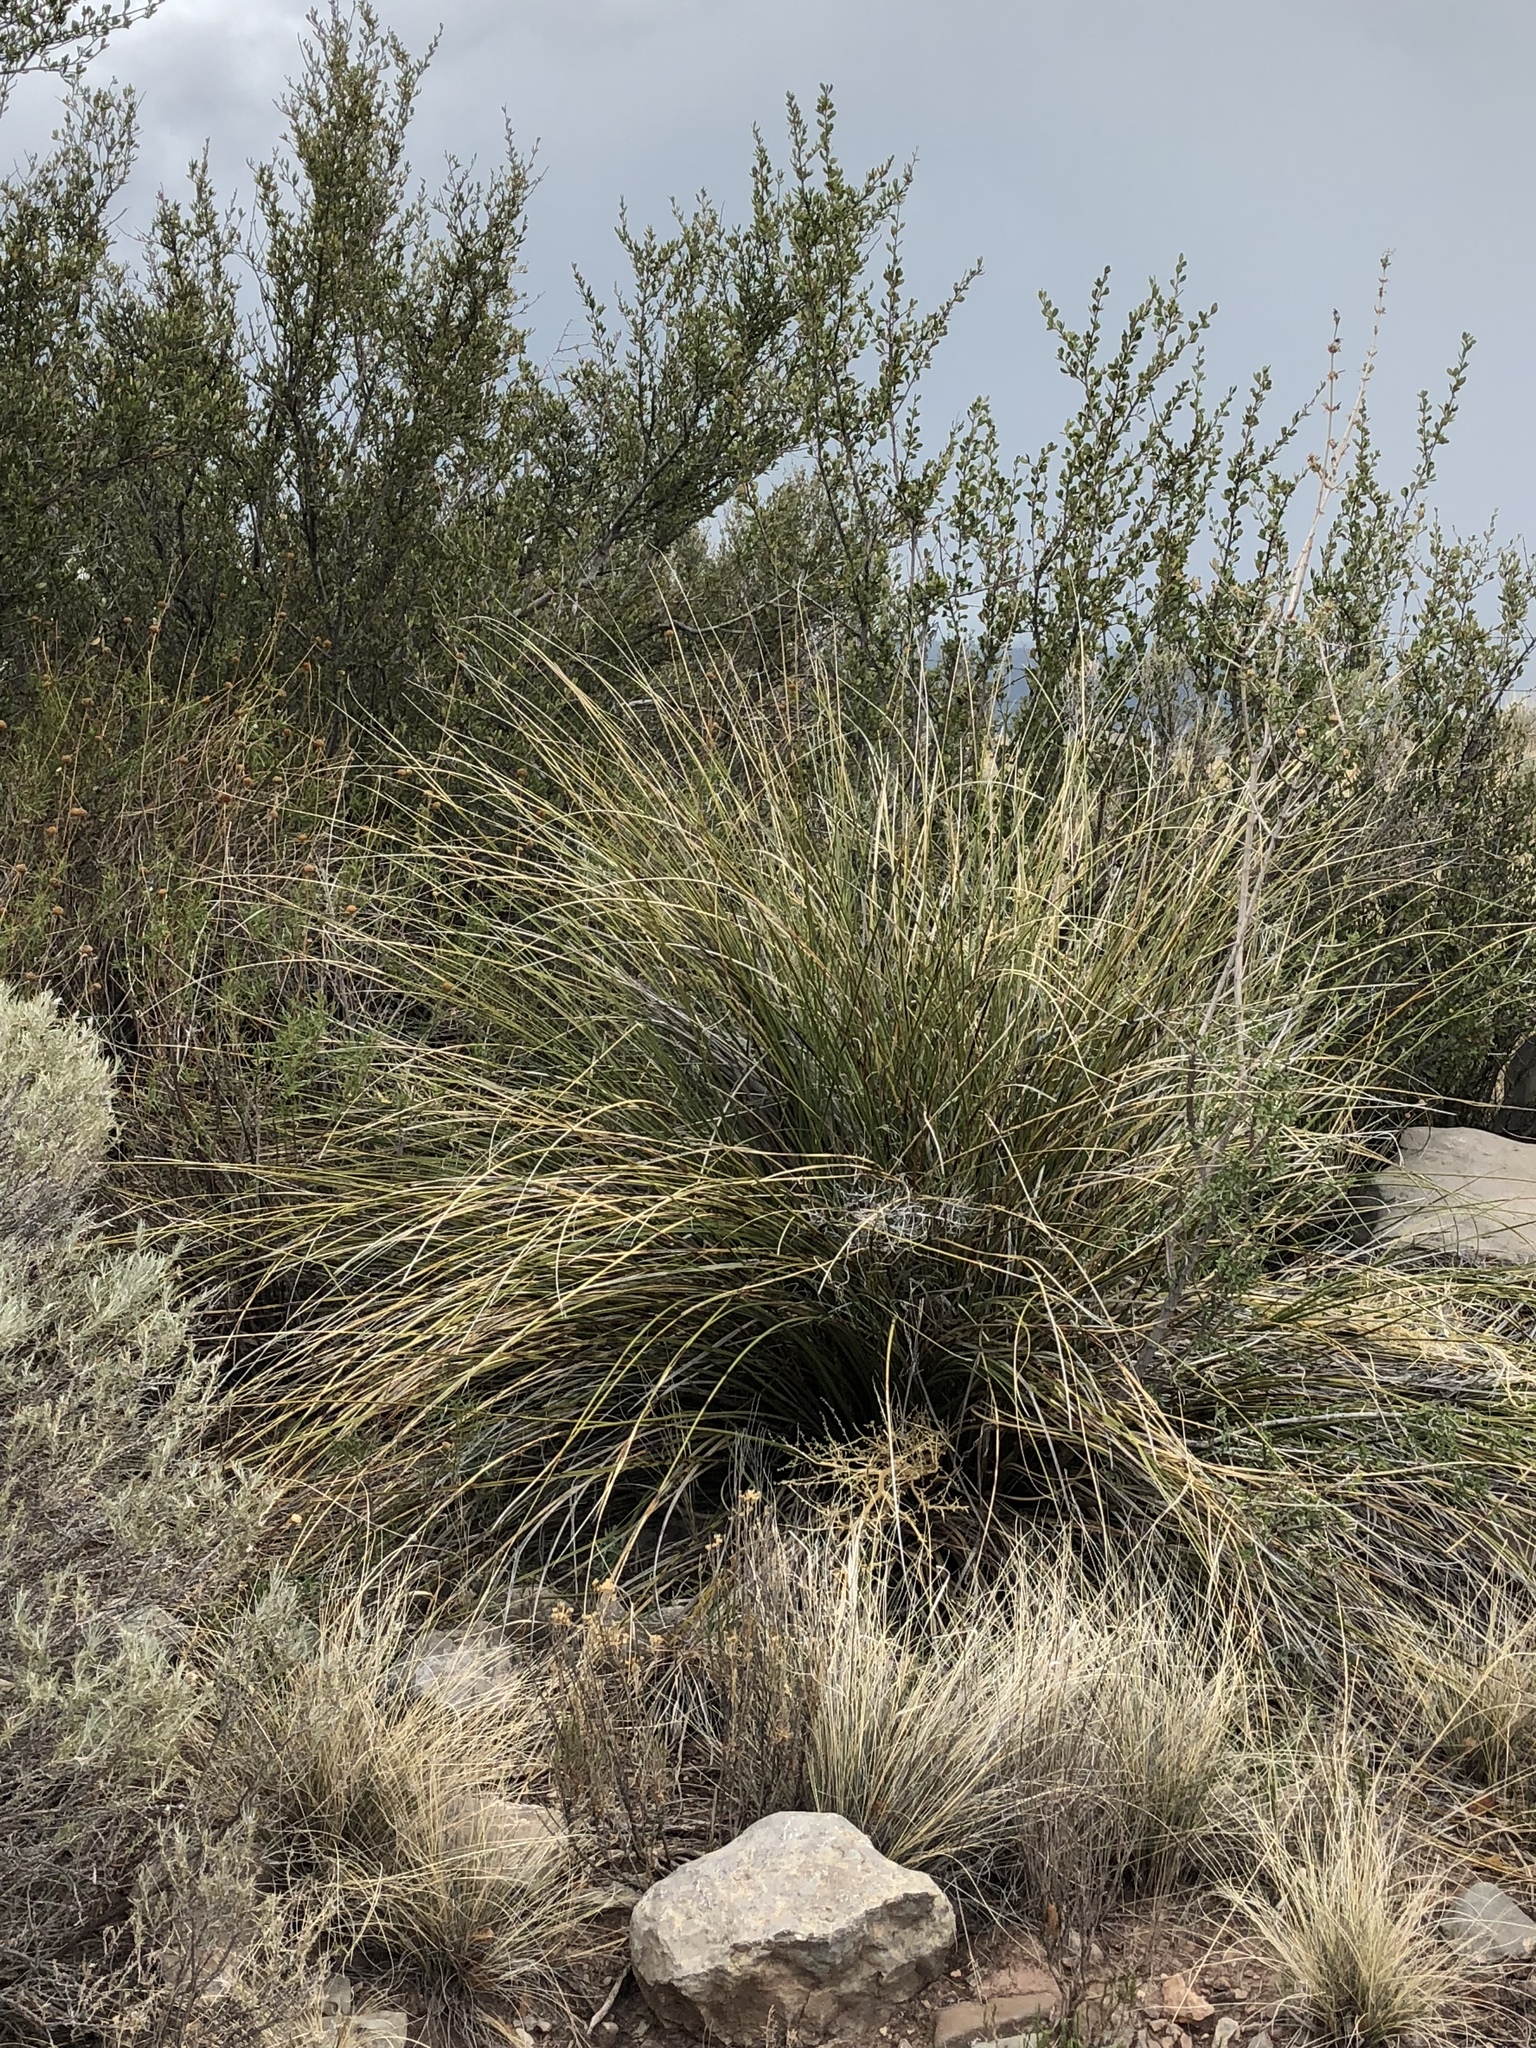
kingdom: Plantae
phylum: Tracheophyta
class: Liliopsida
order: Asparagales
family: Asparagaceae
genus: Nolina
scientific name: Nolina microcarpa
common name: Bear-grass
